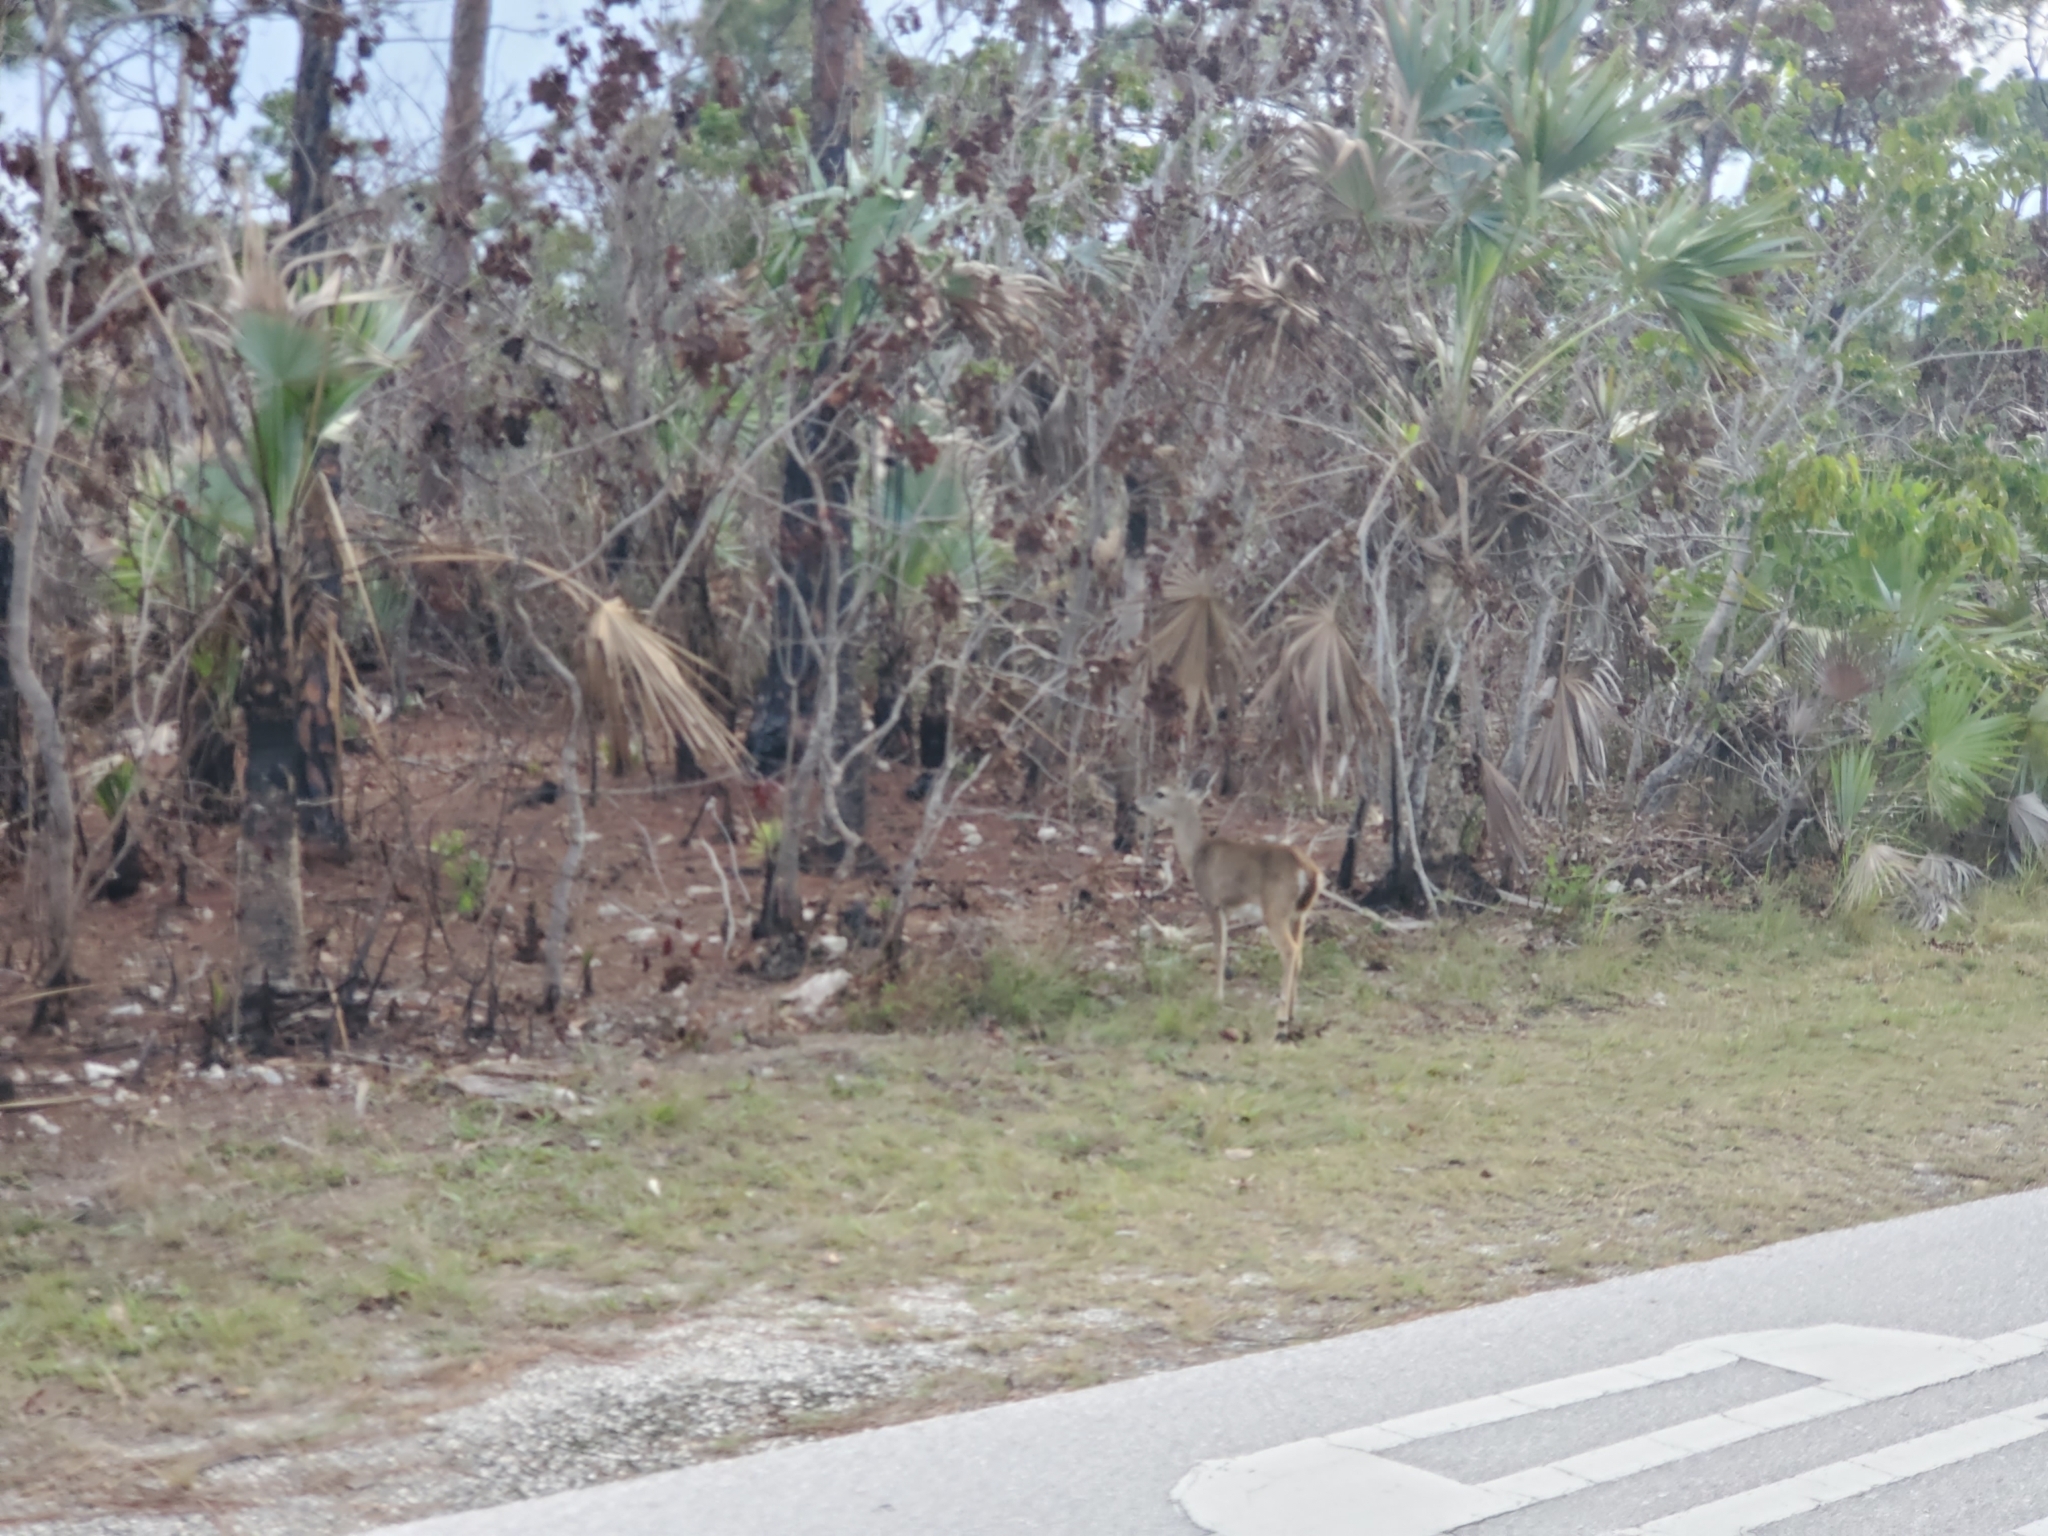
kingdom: Animalia
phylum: Chordata
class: Mammalia
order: Artiodactyla
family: Cervidae
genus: Odocoileus
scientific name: Odocoileus virginianus
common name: White-tailed deer
